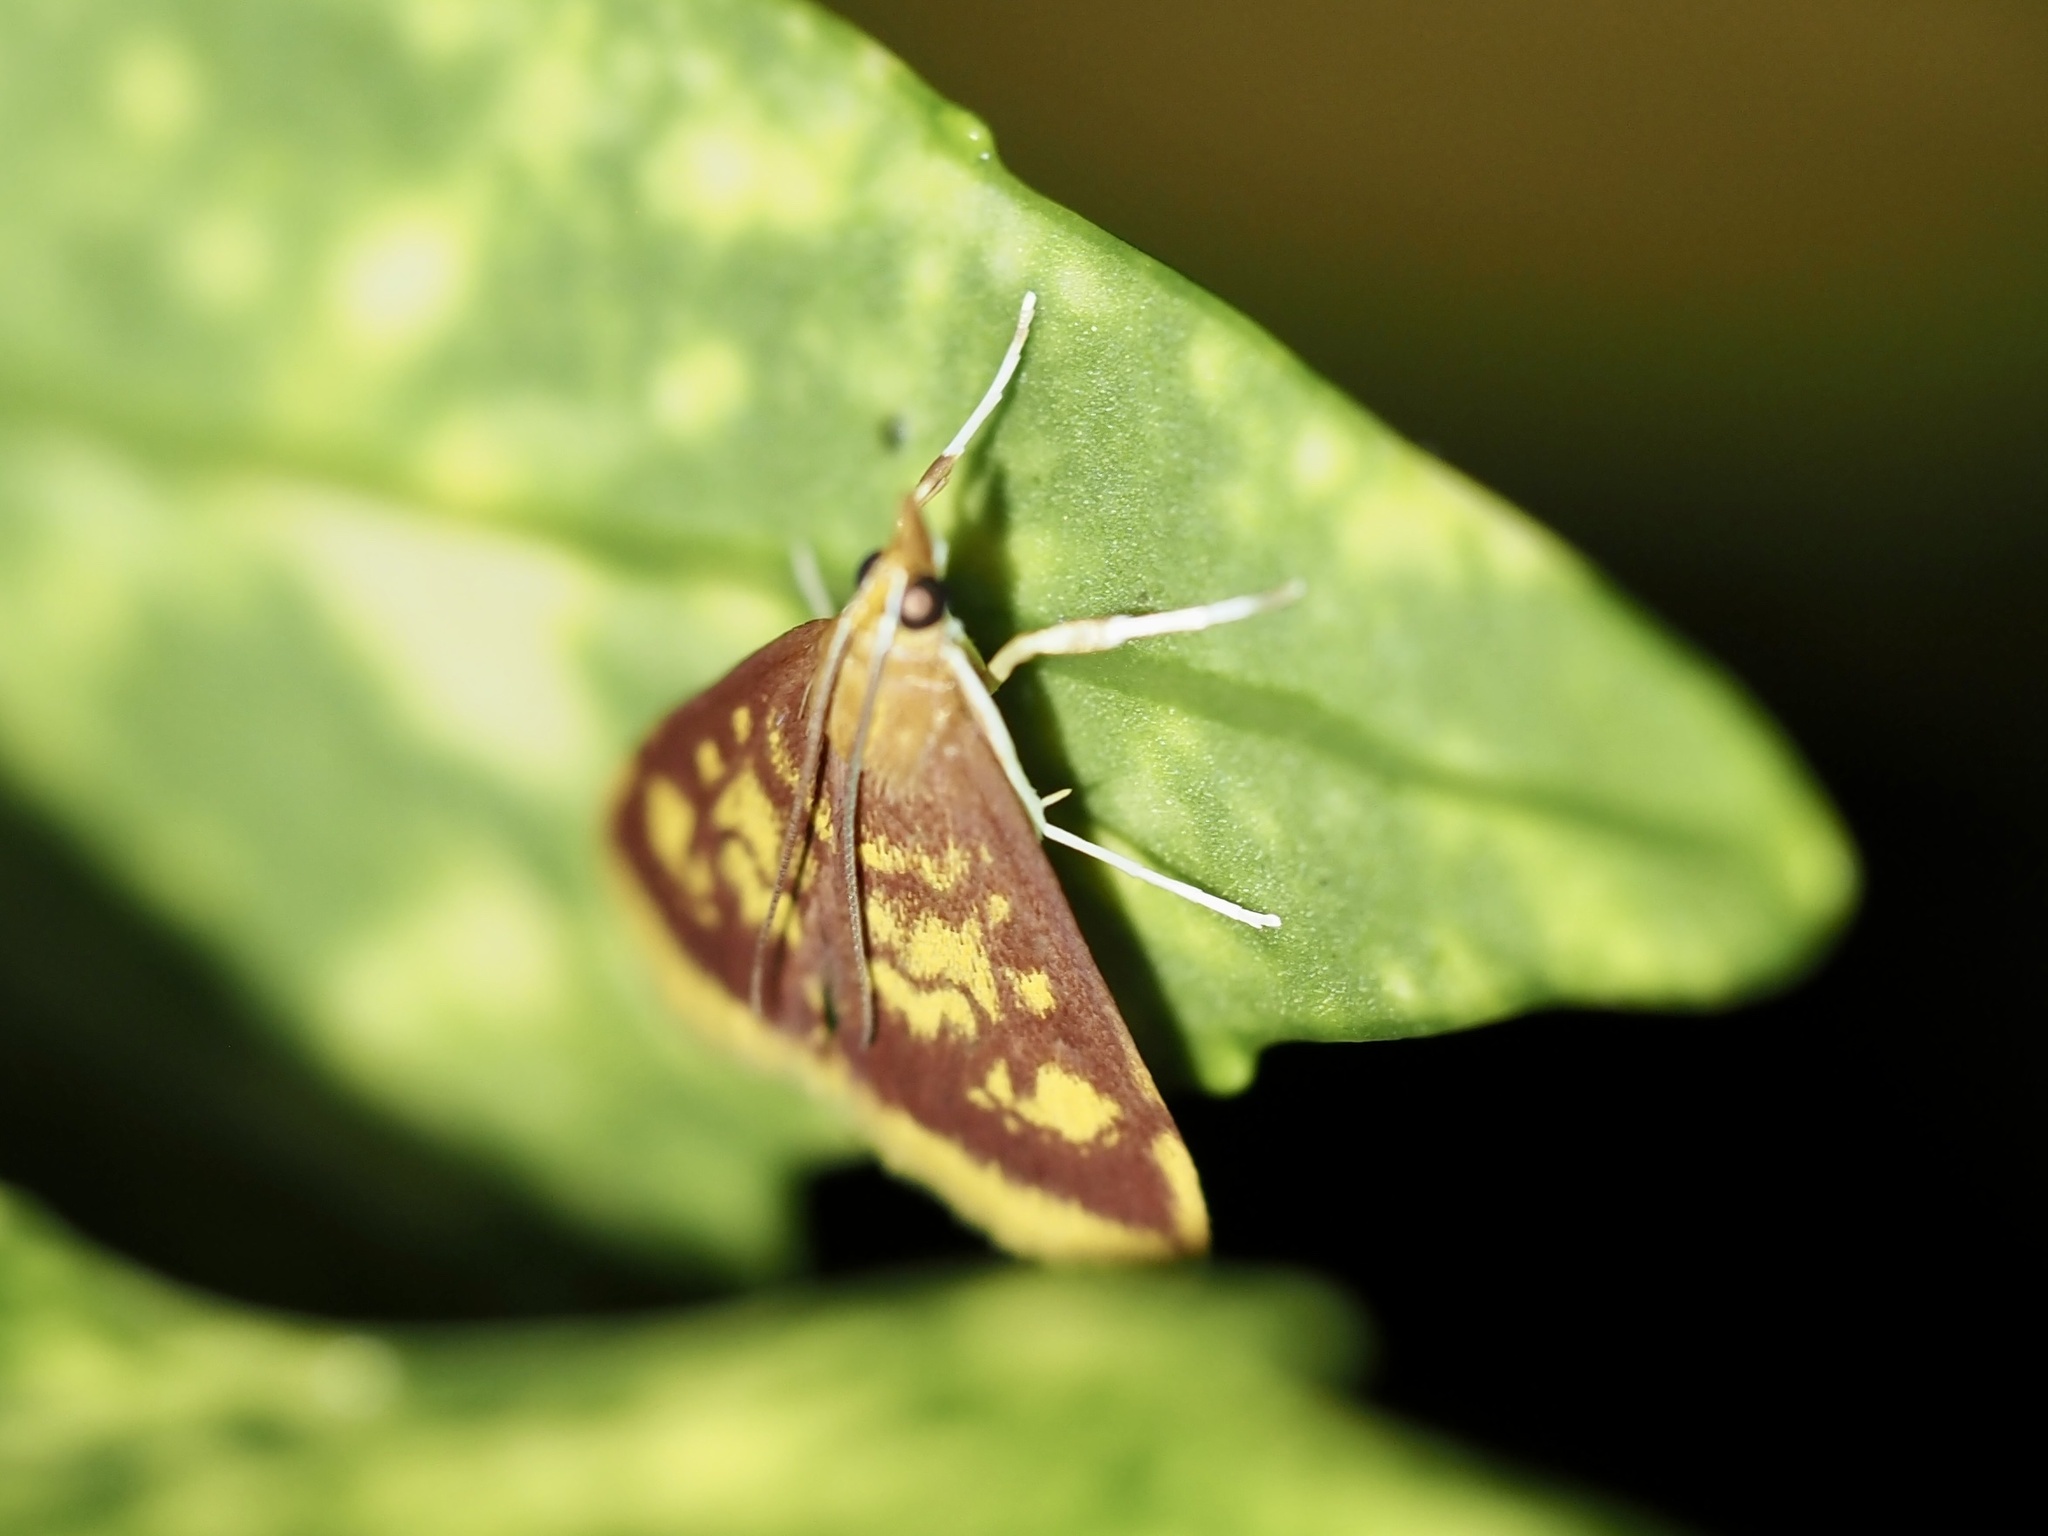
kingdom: Animalia
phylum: Arthropoda
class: Insecta
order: Lepidoptera
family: Crambidae
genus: Pyrausta
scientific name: Pyrausta acrionalis
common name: Mint-loving pyrausta moth
